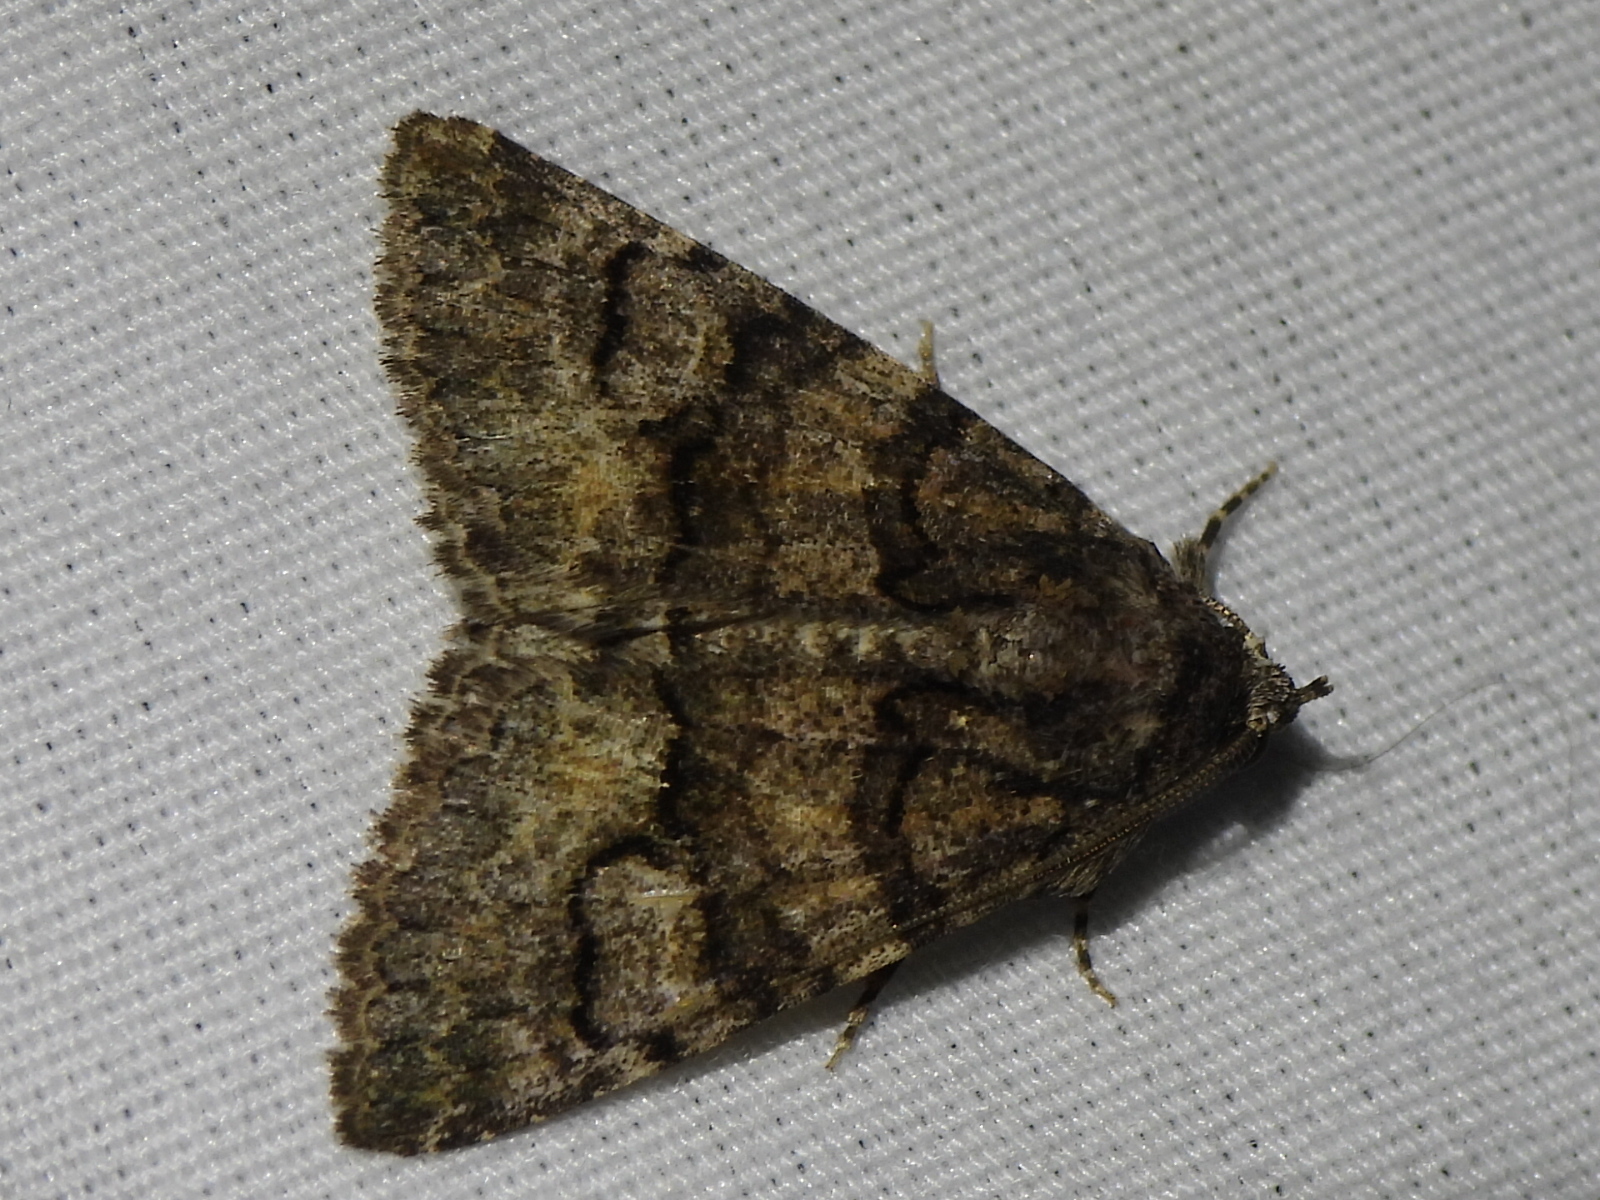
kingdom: Animalia
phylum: Arthropoda
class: Insecta
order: Lepidoptera
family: Erebidae
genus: Elousa
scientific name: Elousa mima
